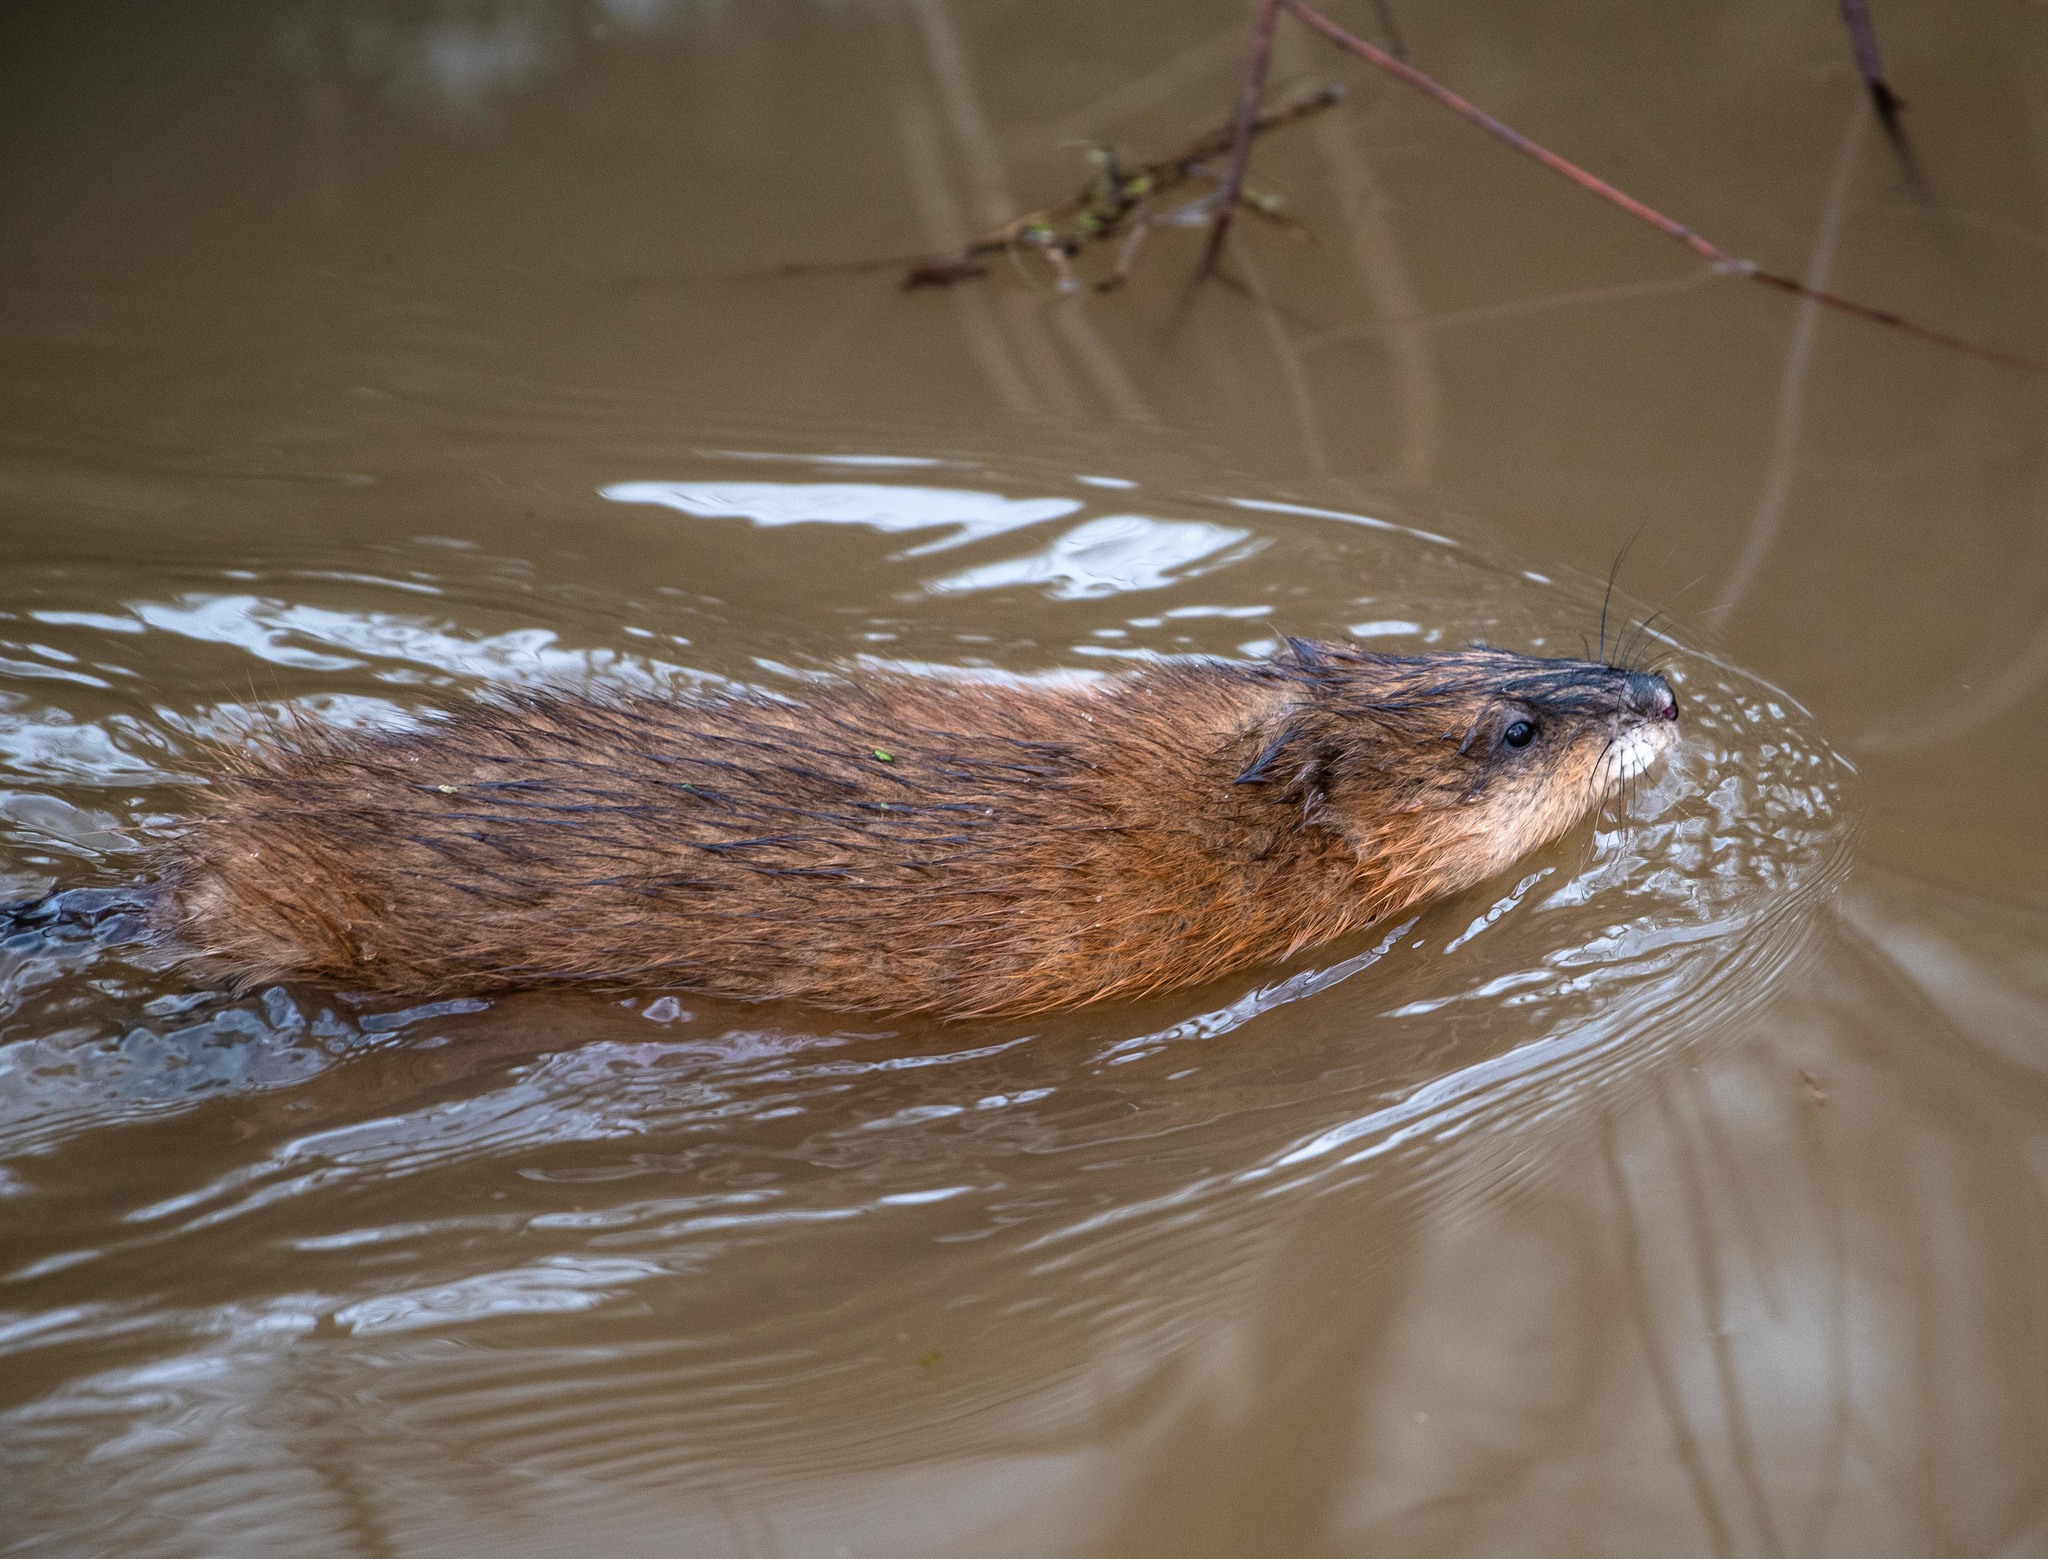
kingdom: Animalia
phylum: Chordata
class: Mammalia
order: Rodentia
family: Cricetidae
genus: Ondatra
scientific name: Ondatra zibethicus
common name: Muskrat
